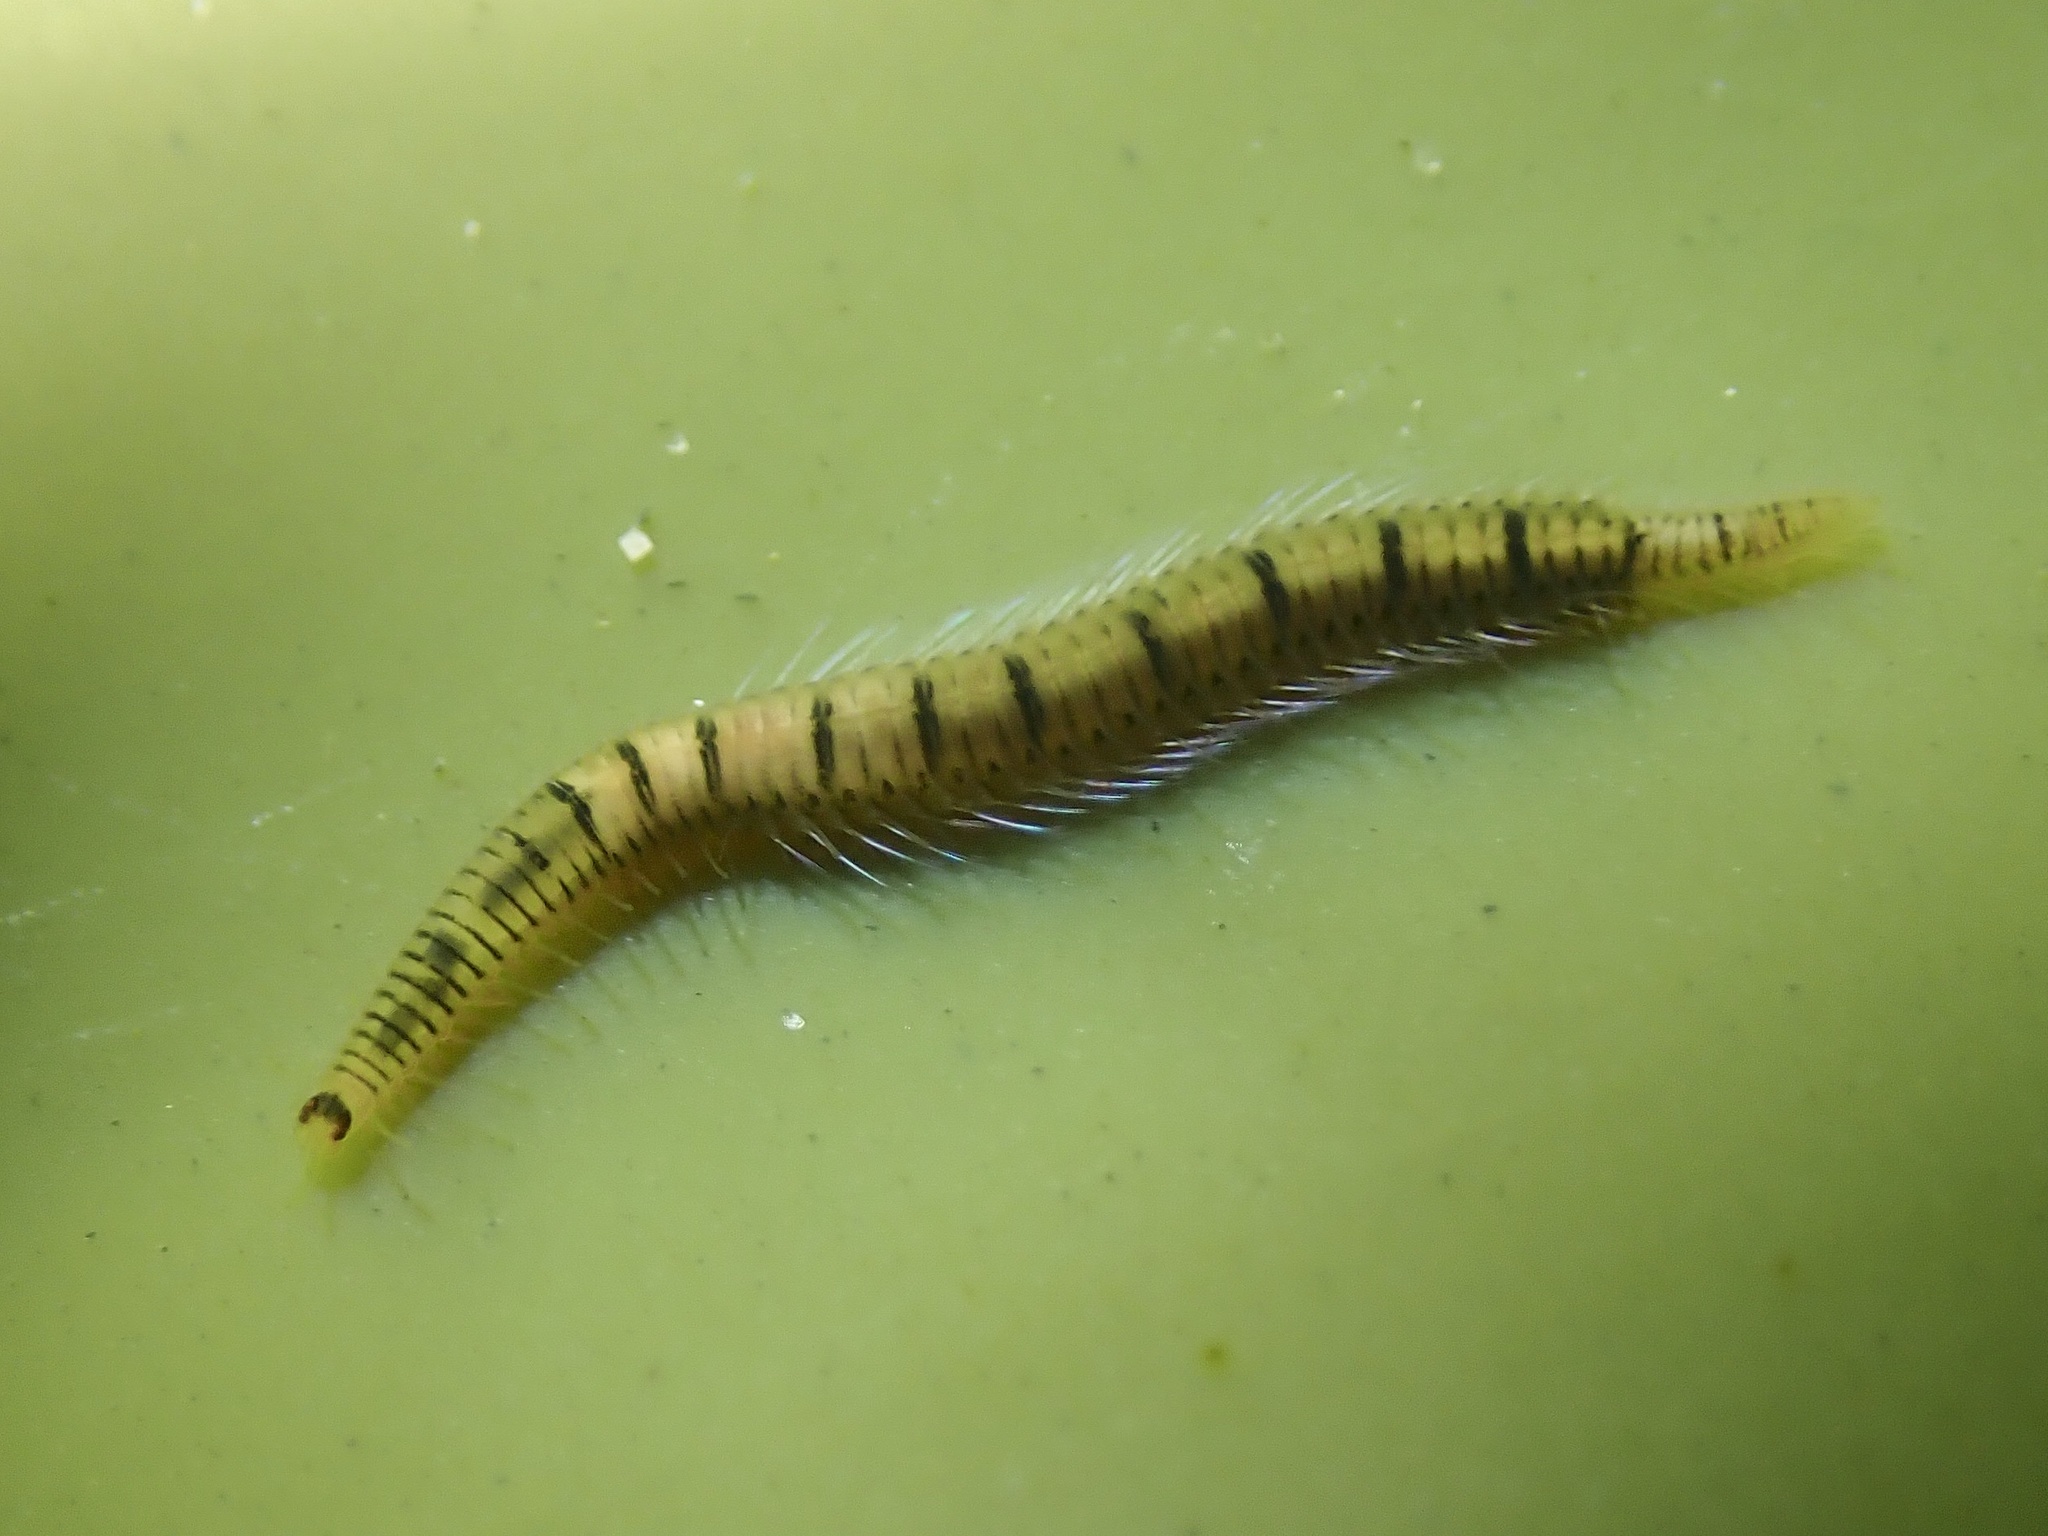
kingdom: Animalia
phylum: Annelida
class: Polychaeta
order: Phyllodocida
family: Syllidae
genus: Odontosyllis
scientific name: Odontosyllis phosphorea
